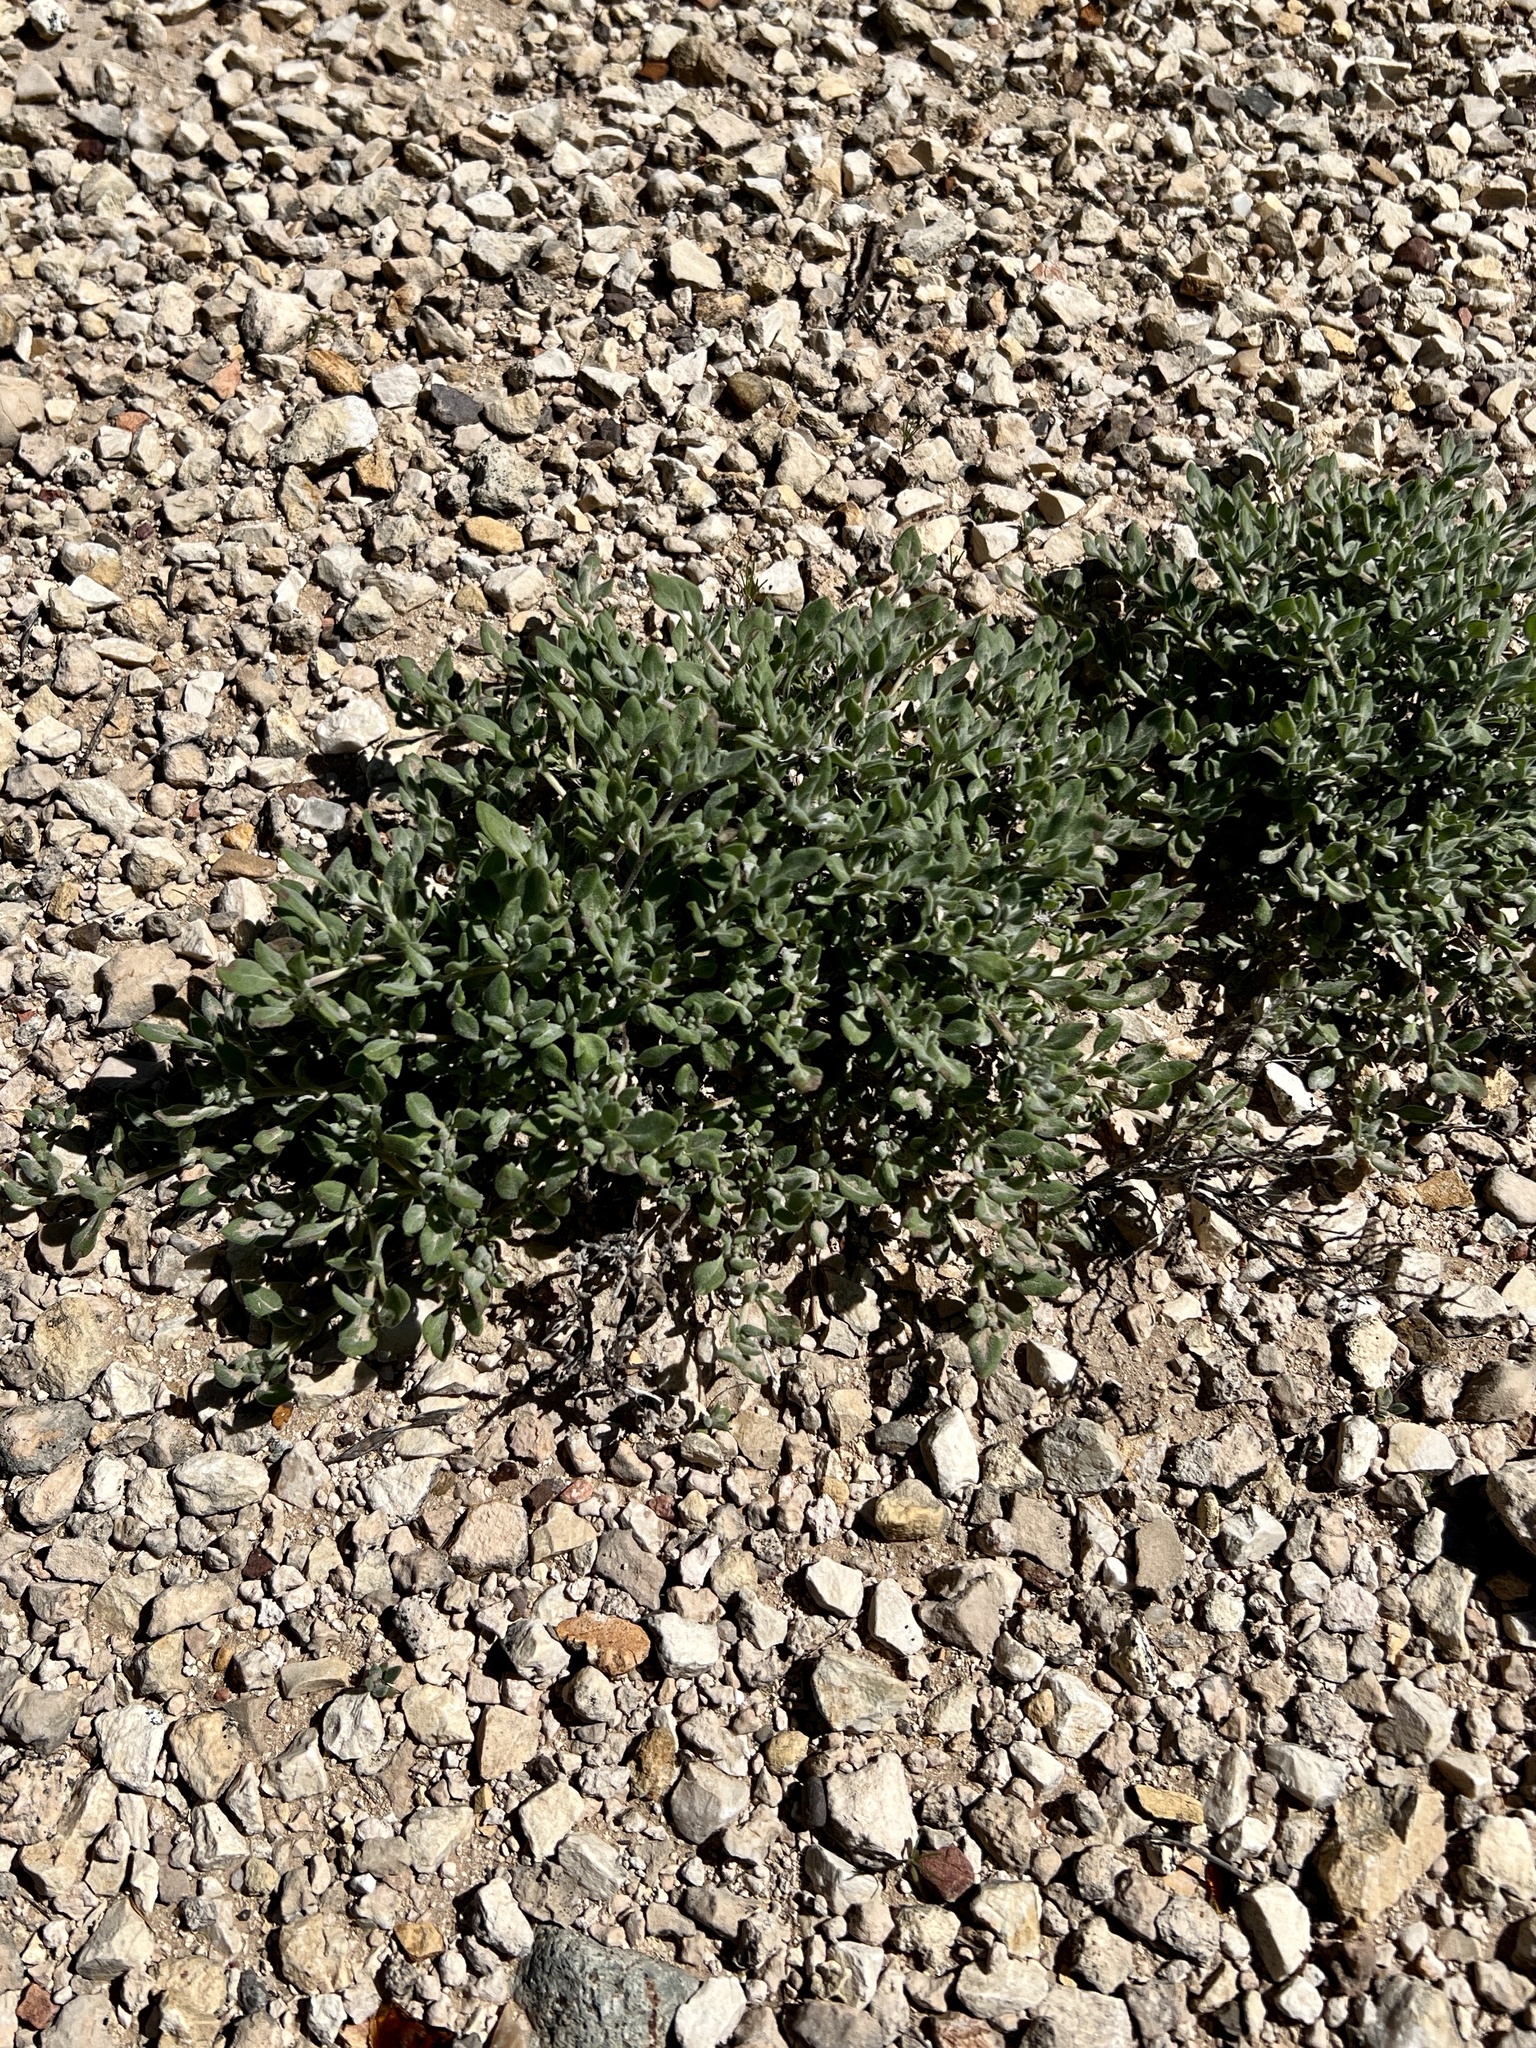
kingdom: Plantae
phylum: Tracheophyta
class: Magnoliopsida
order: Boraginales
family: Ehretiaceae
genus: Tiquilia
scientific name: Tiquilia canescens
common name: Hairy tiquilia
